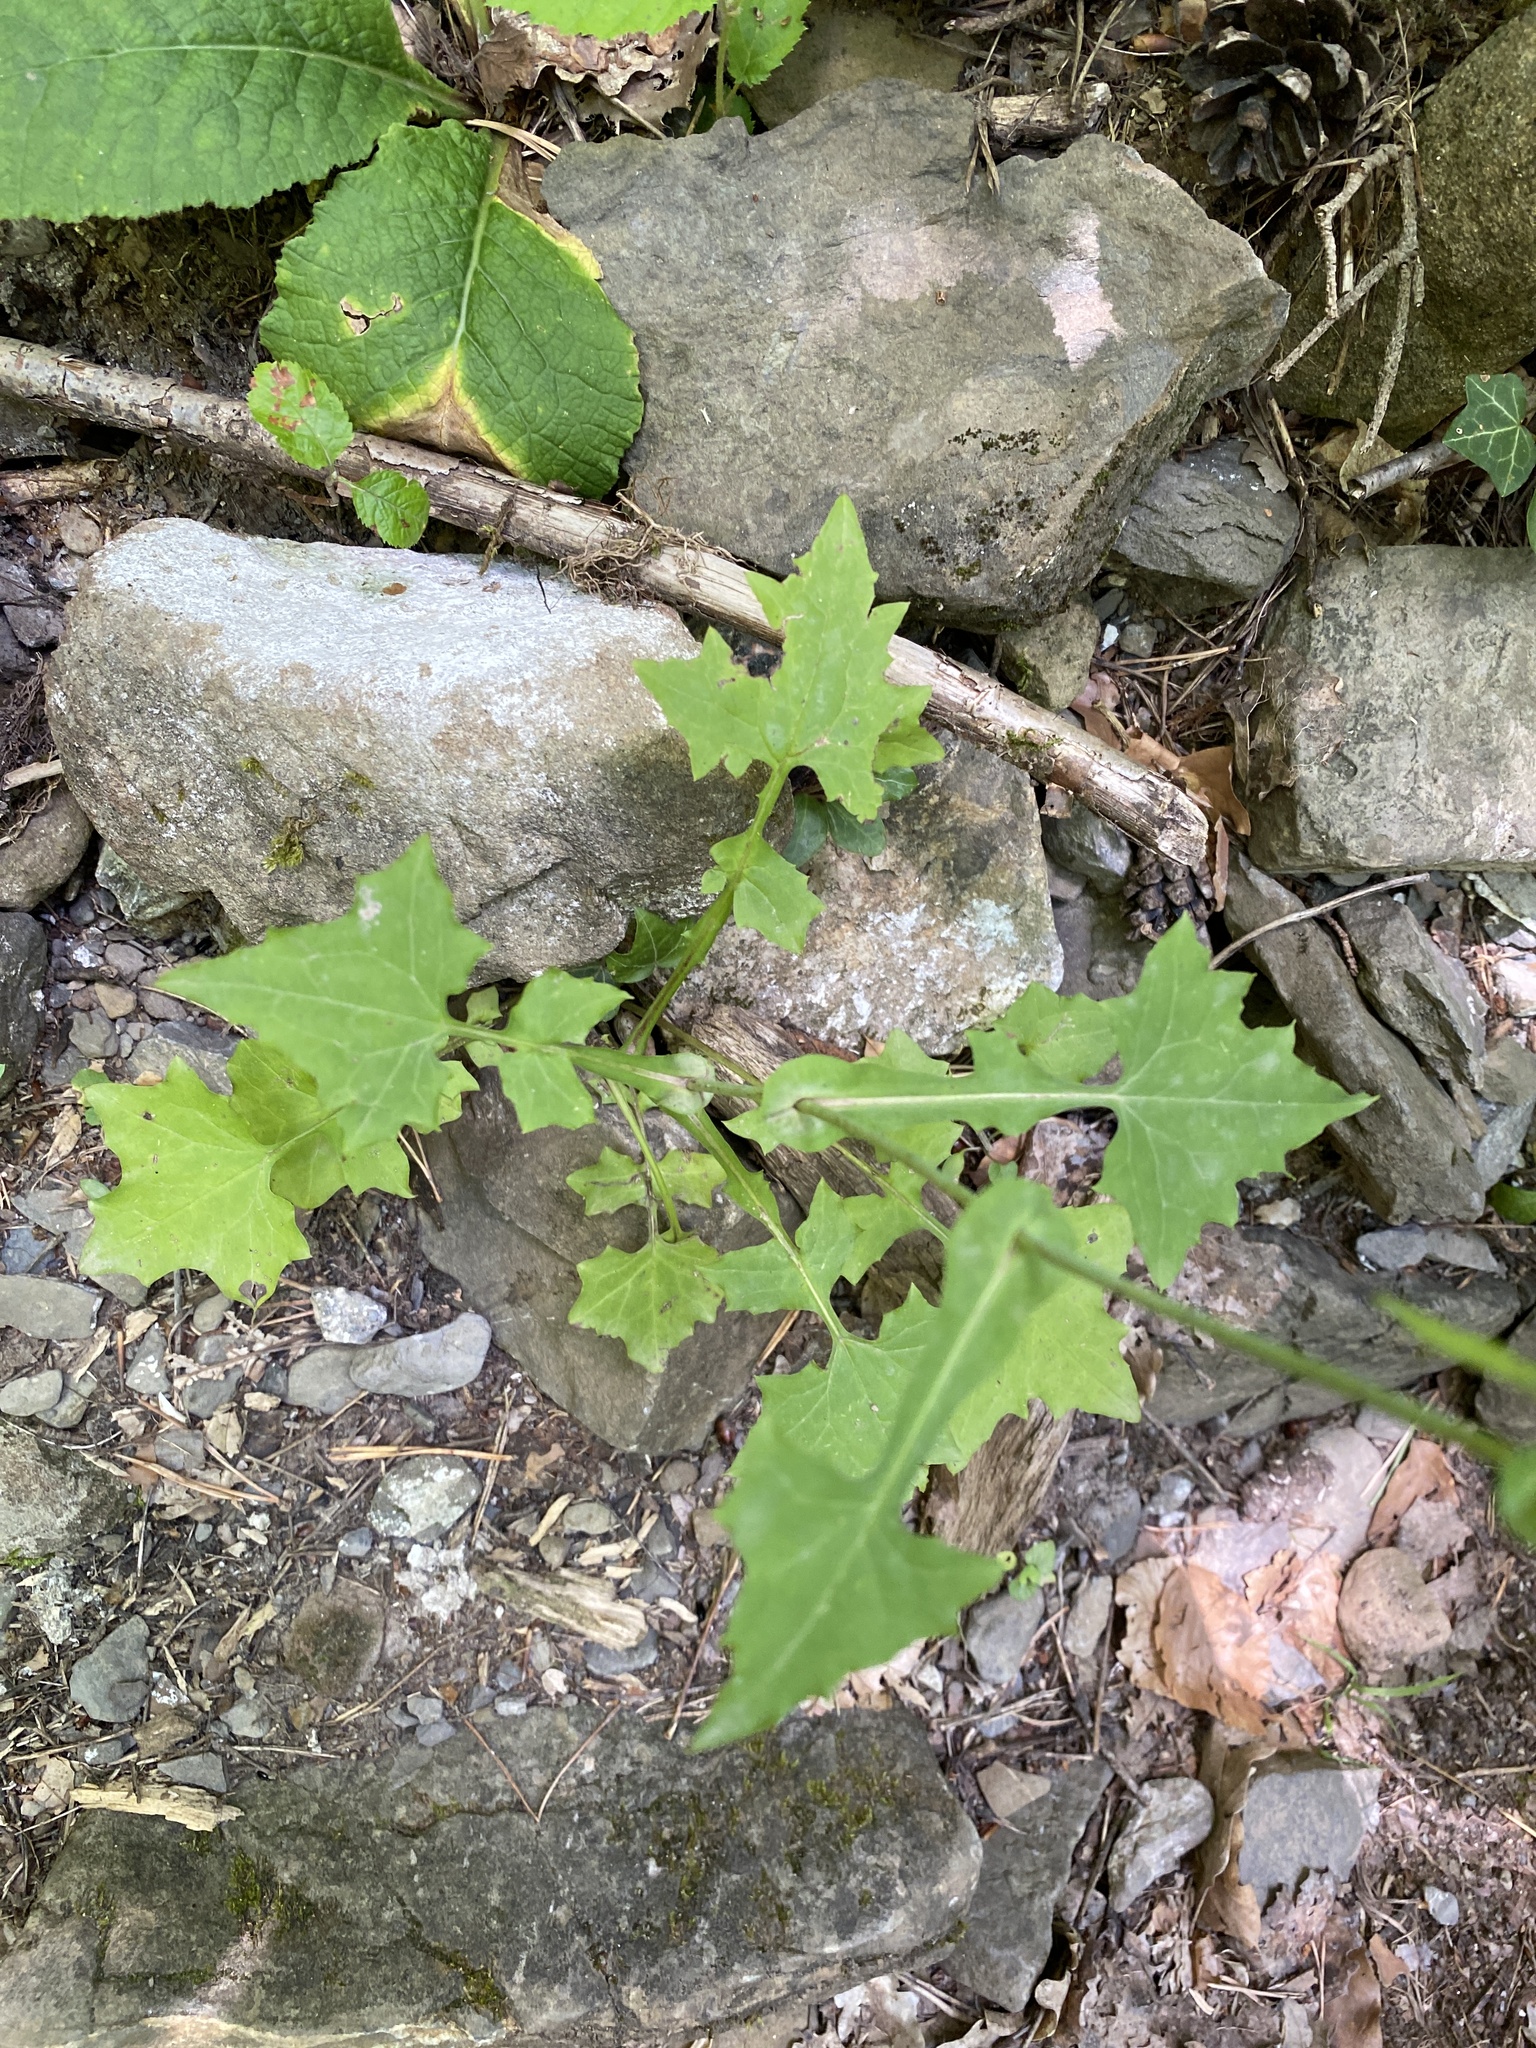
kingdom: Plantae
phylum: Tracheophyta
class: Magnoliopsida
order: Asterales
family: Asteraceae
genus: Mycelis
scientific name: Mycelis muralis
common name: Wall lettuce
